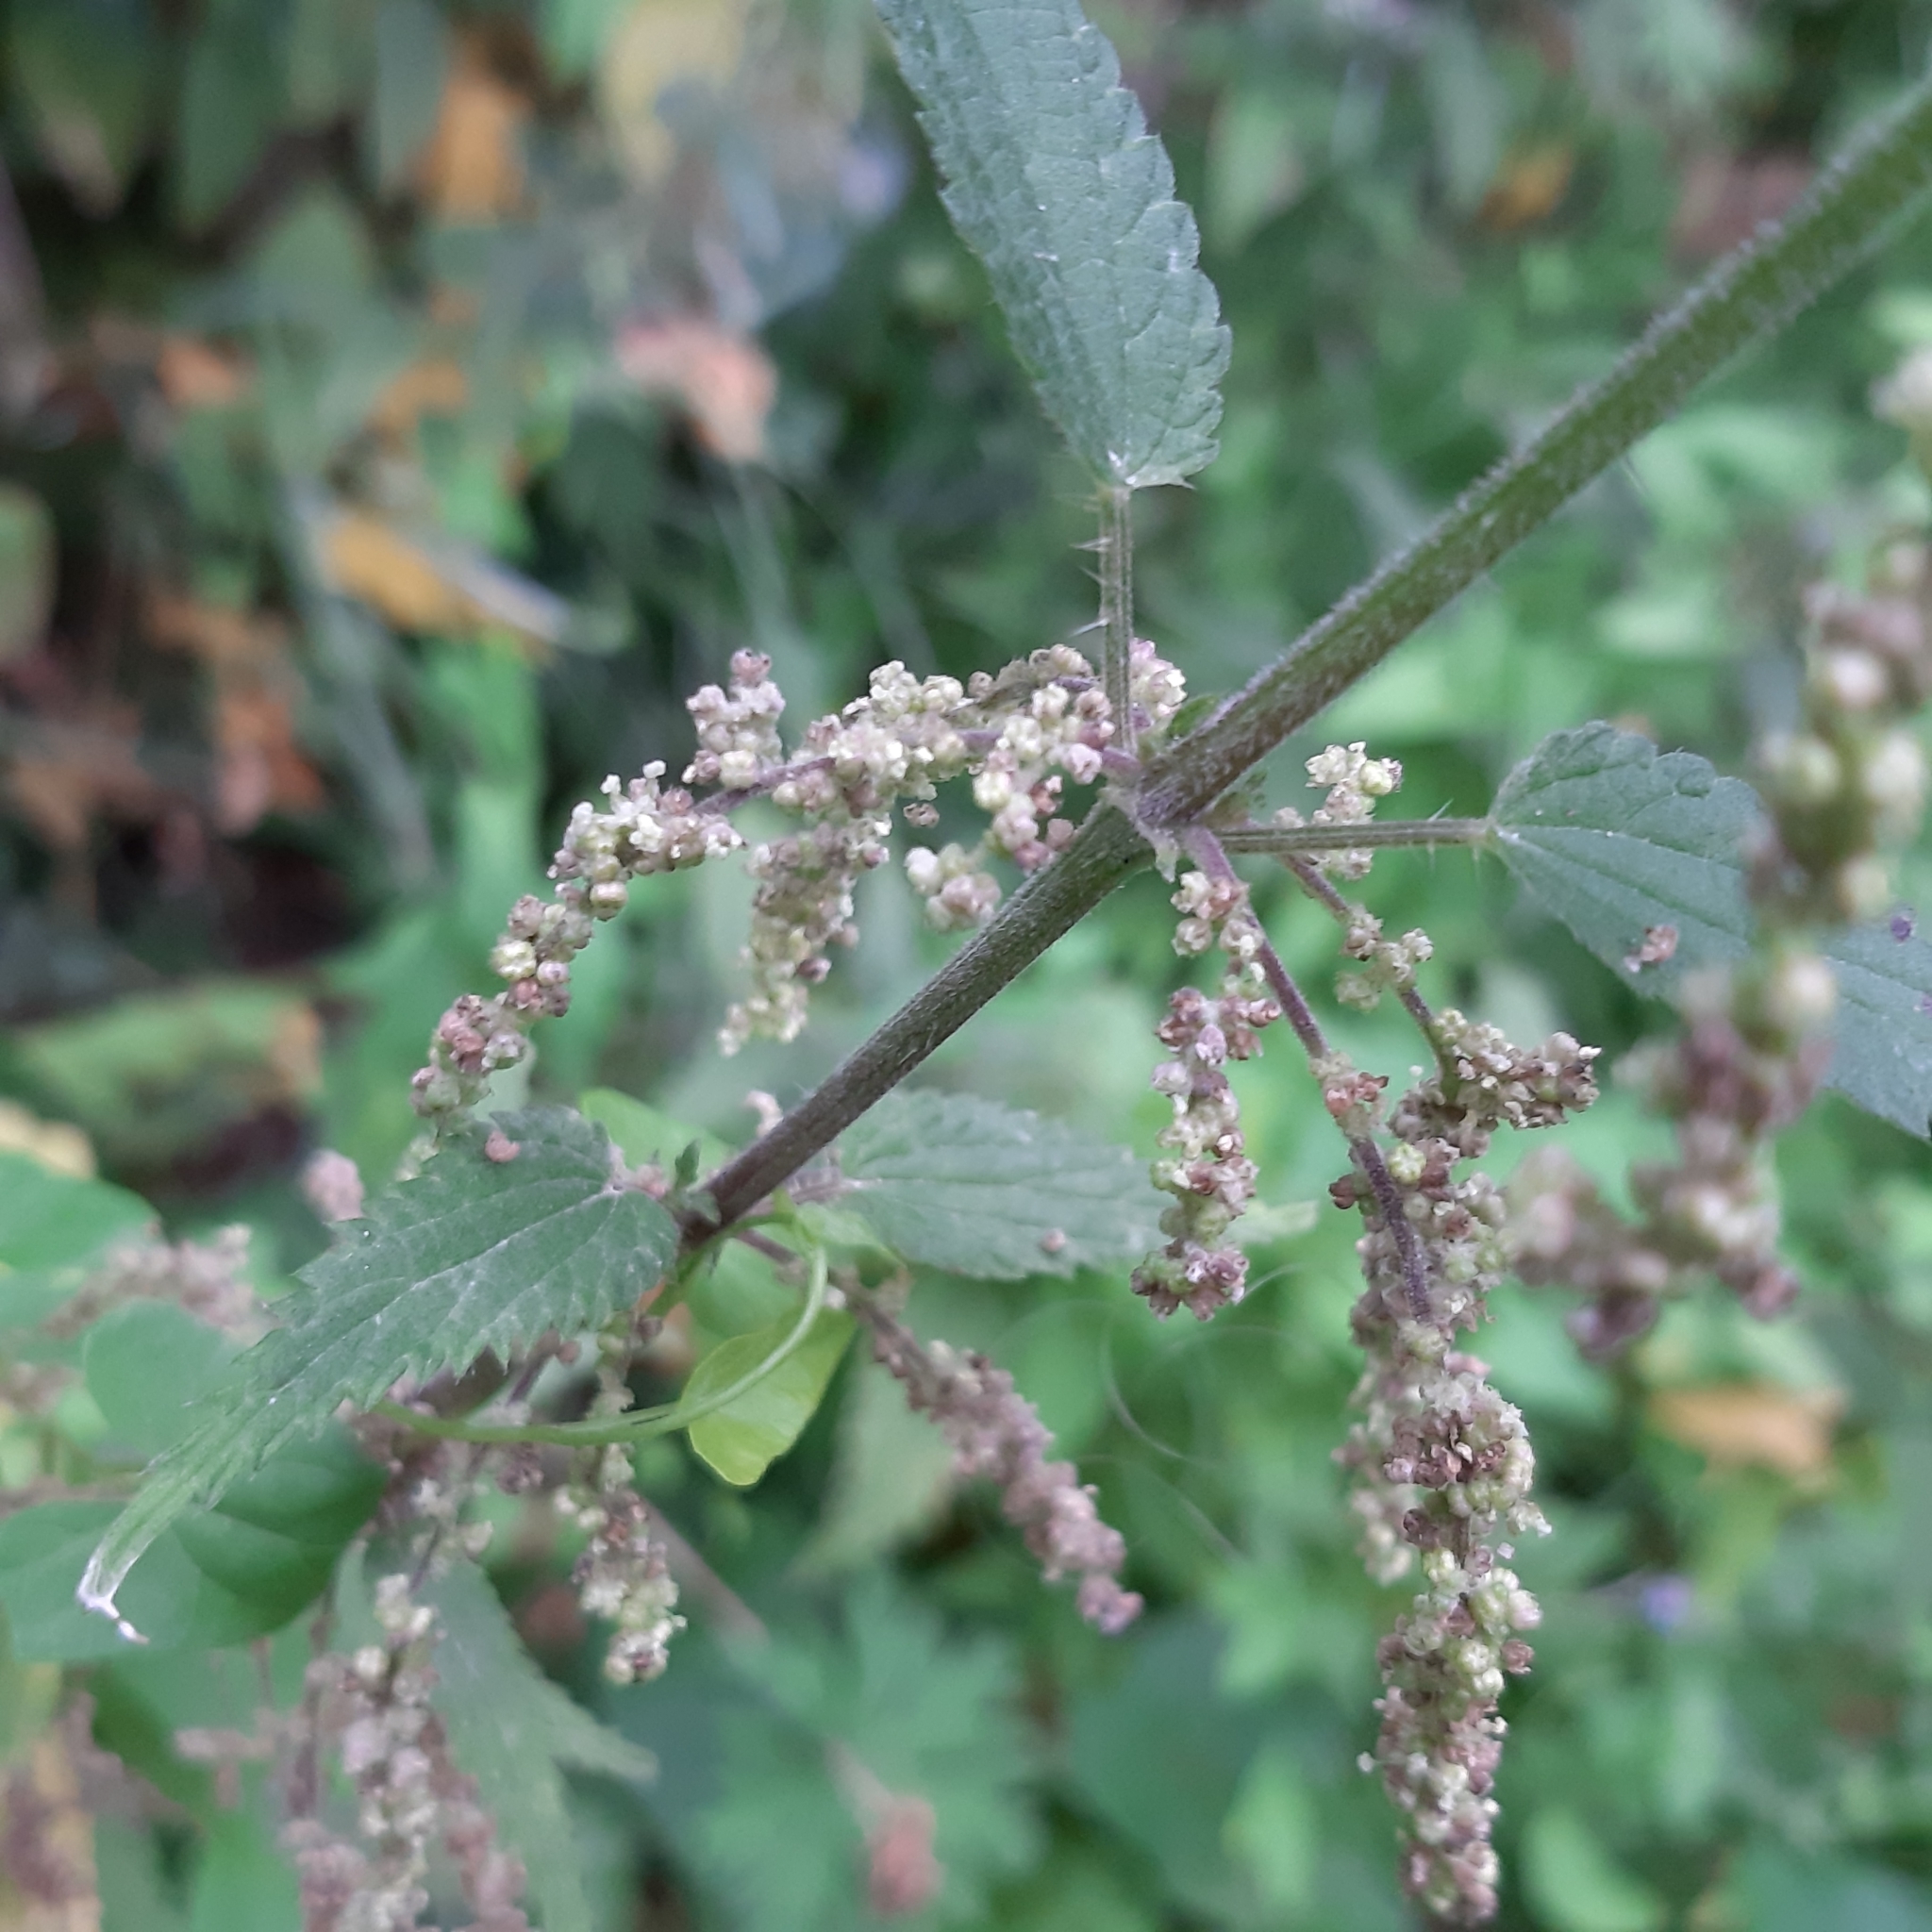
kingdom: Plantae
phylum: Tracheophyta
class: Magnoliopsida
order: Rosales
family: Urticaceae
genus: Urtica
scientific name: Urtica dioica
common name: Common nettle
